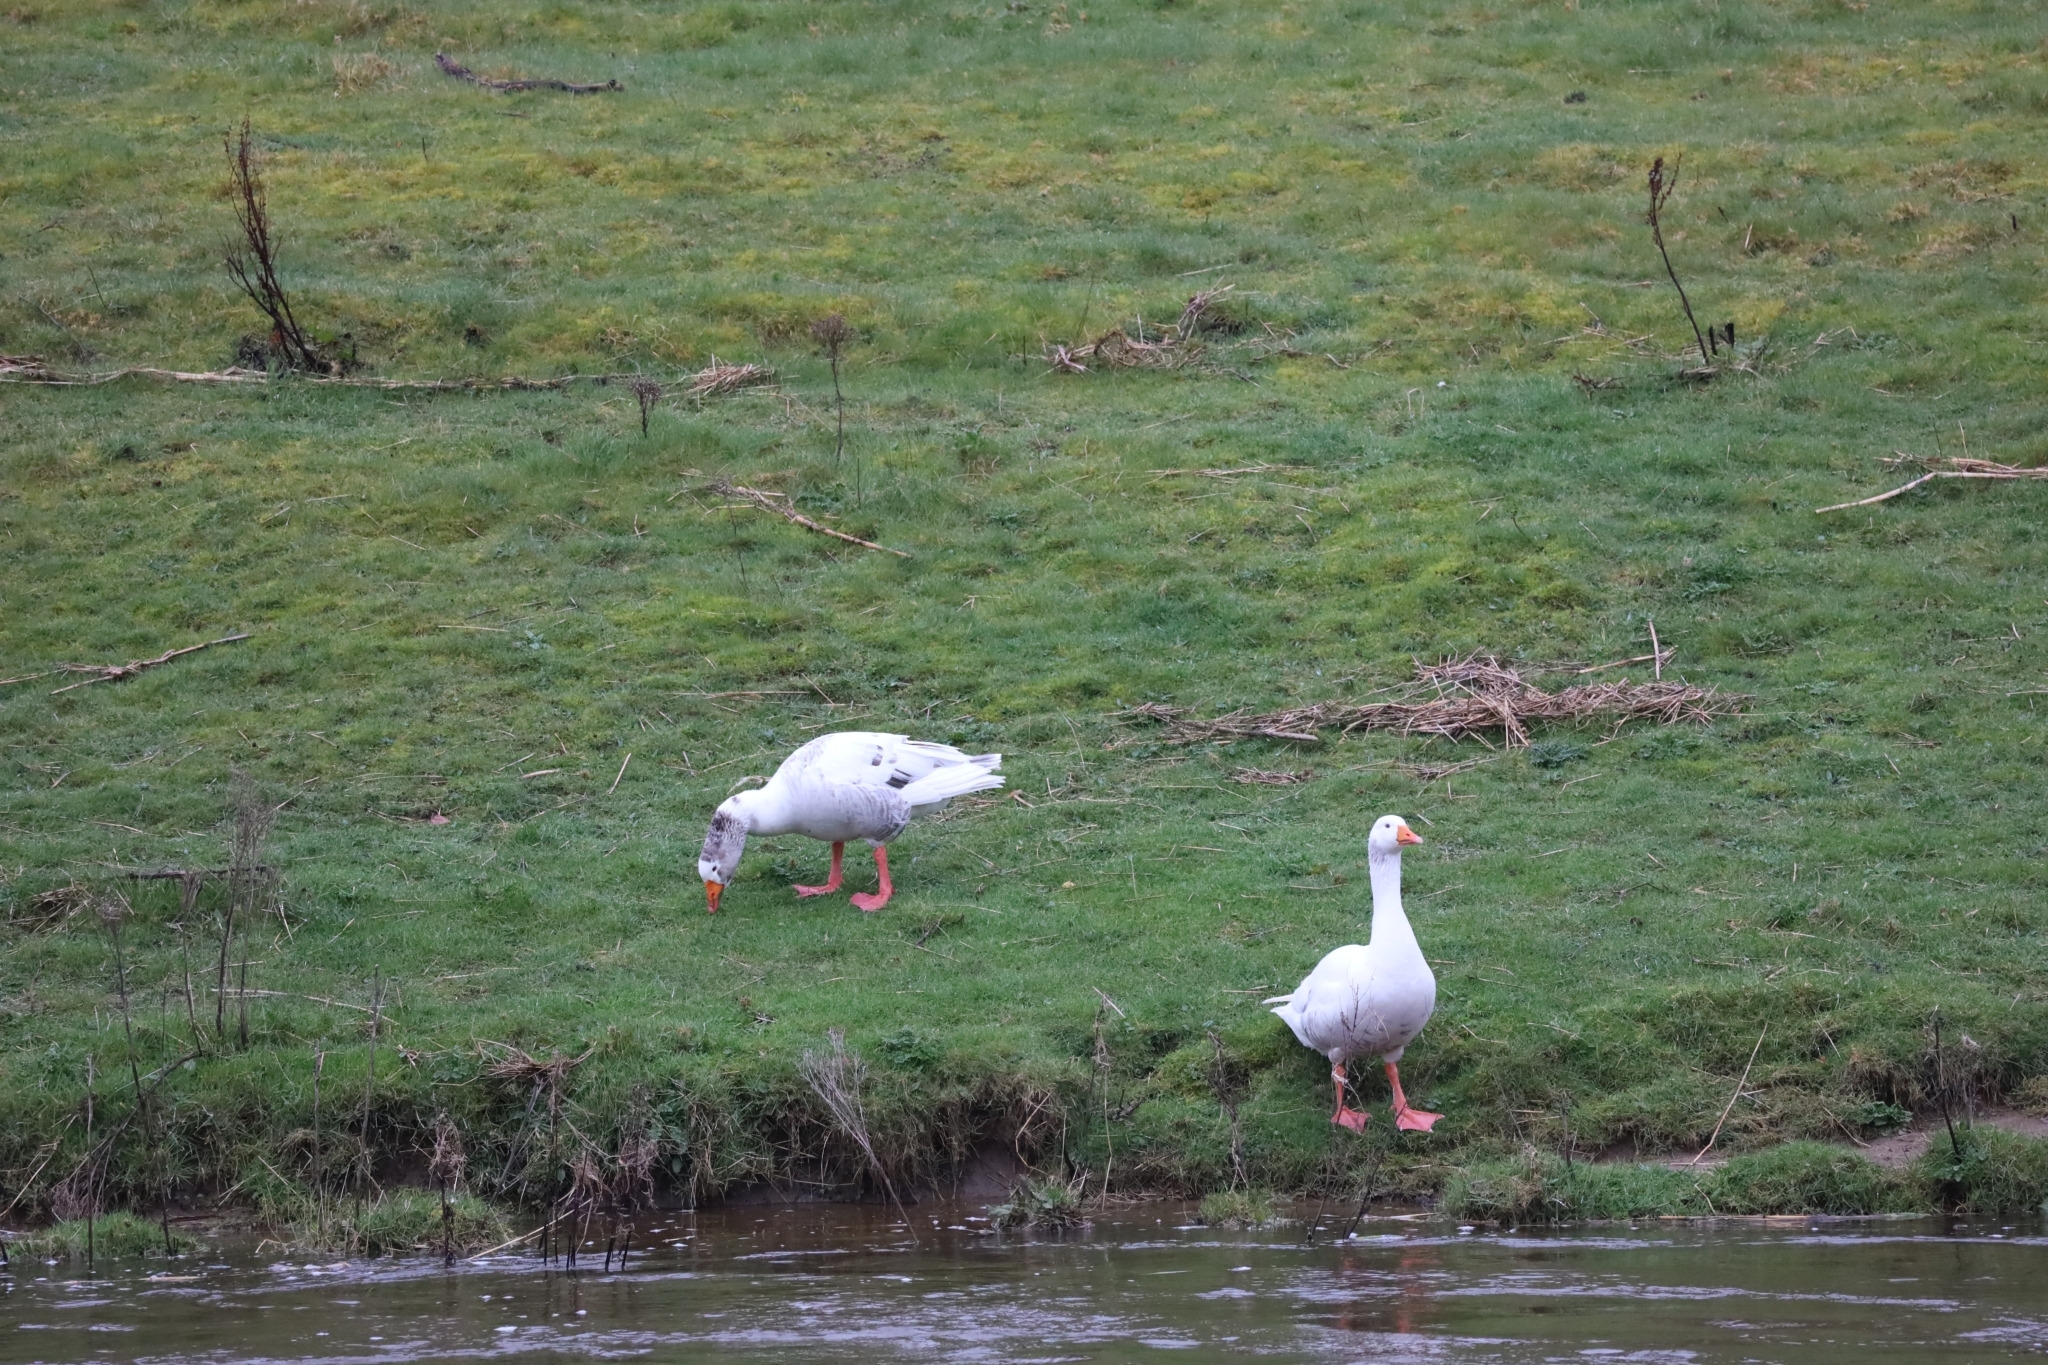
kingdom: Animalia
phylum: Chordata
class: Aves
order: Anseriformes
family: Anatidae
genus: Anser
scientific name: Anser anser
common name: Greylag goose
